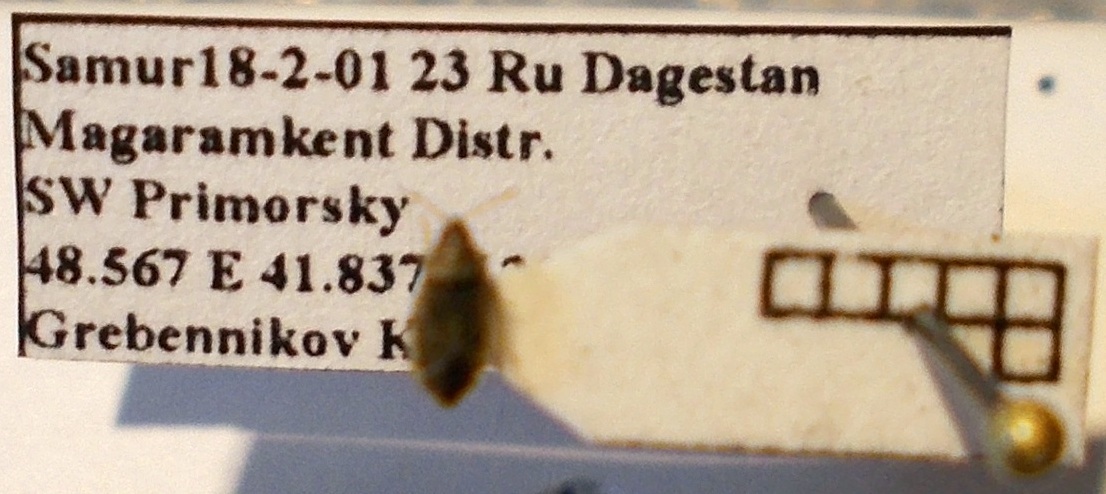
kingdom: Animalia
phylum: Arthropoda
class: Insecta
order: Hemiptera
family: Artheneidae
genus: Holcocranum
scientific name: Holcocranum saturejae
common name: Cattail bug
